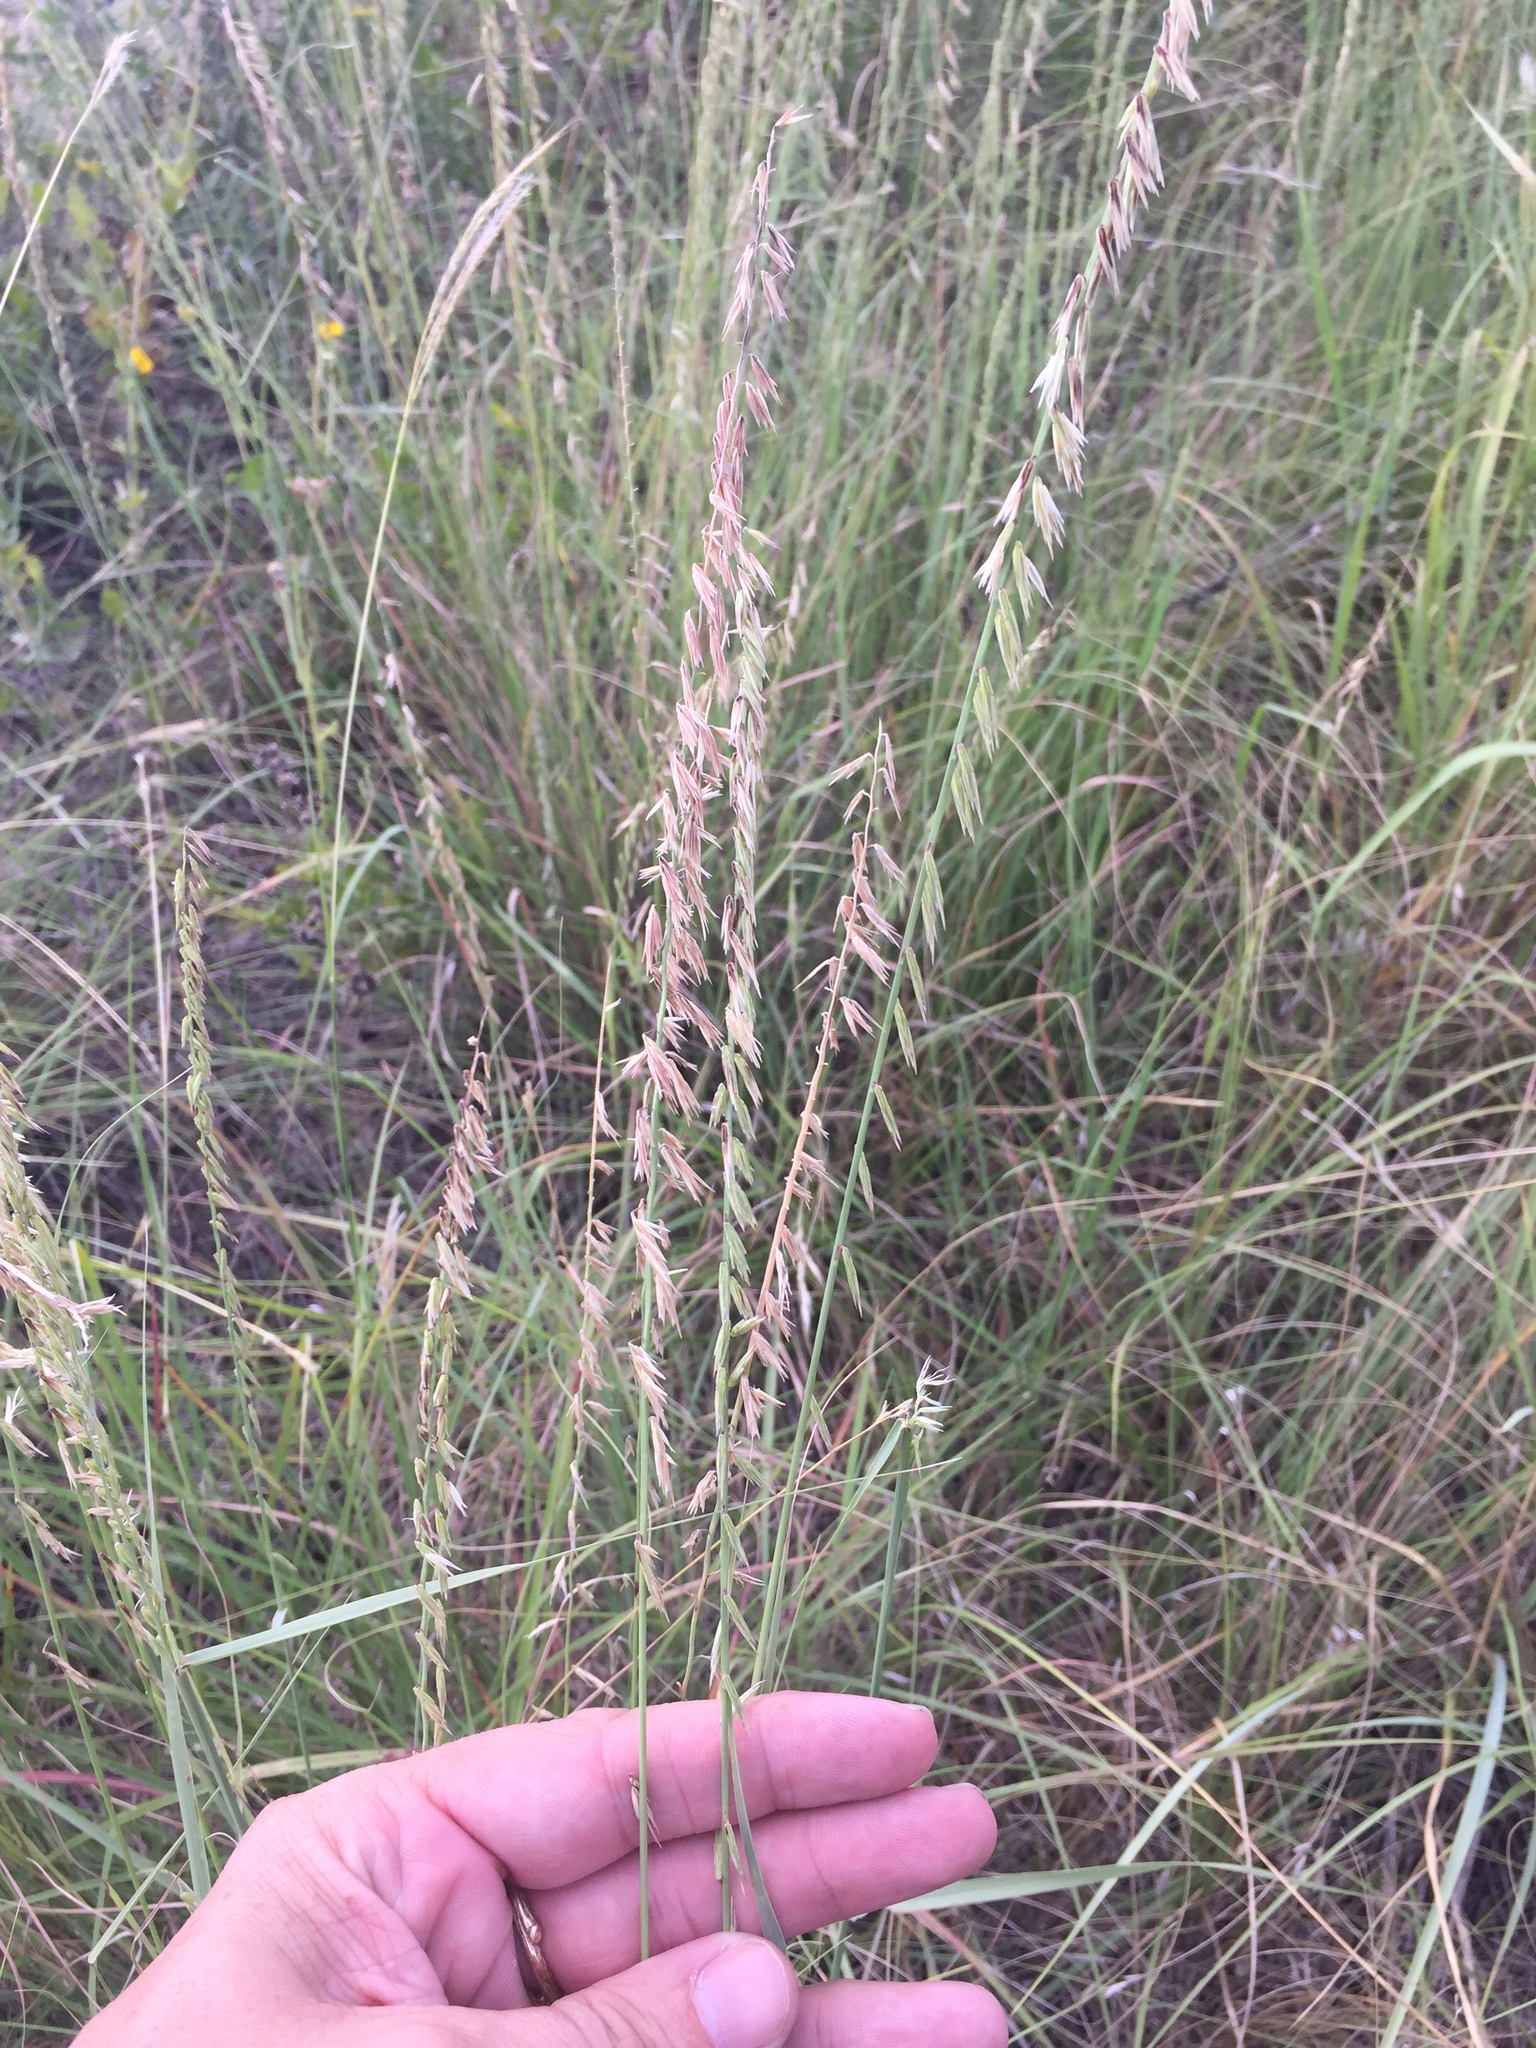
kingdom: Plantae
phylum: Tracheophyta
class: Liliopsida
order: Poales
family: Poaceae
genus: Bouteloua
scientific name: Bouteloua curtipendula
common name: Side-oats grama
